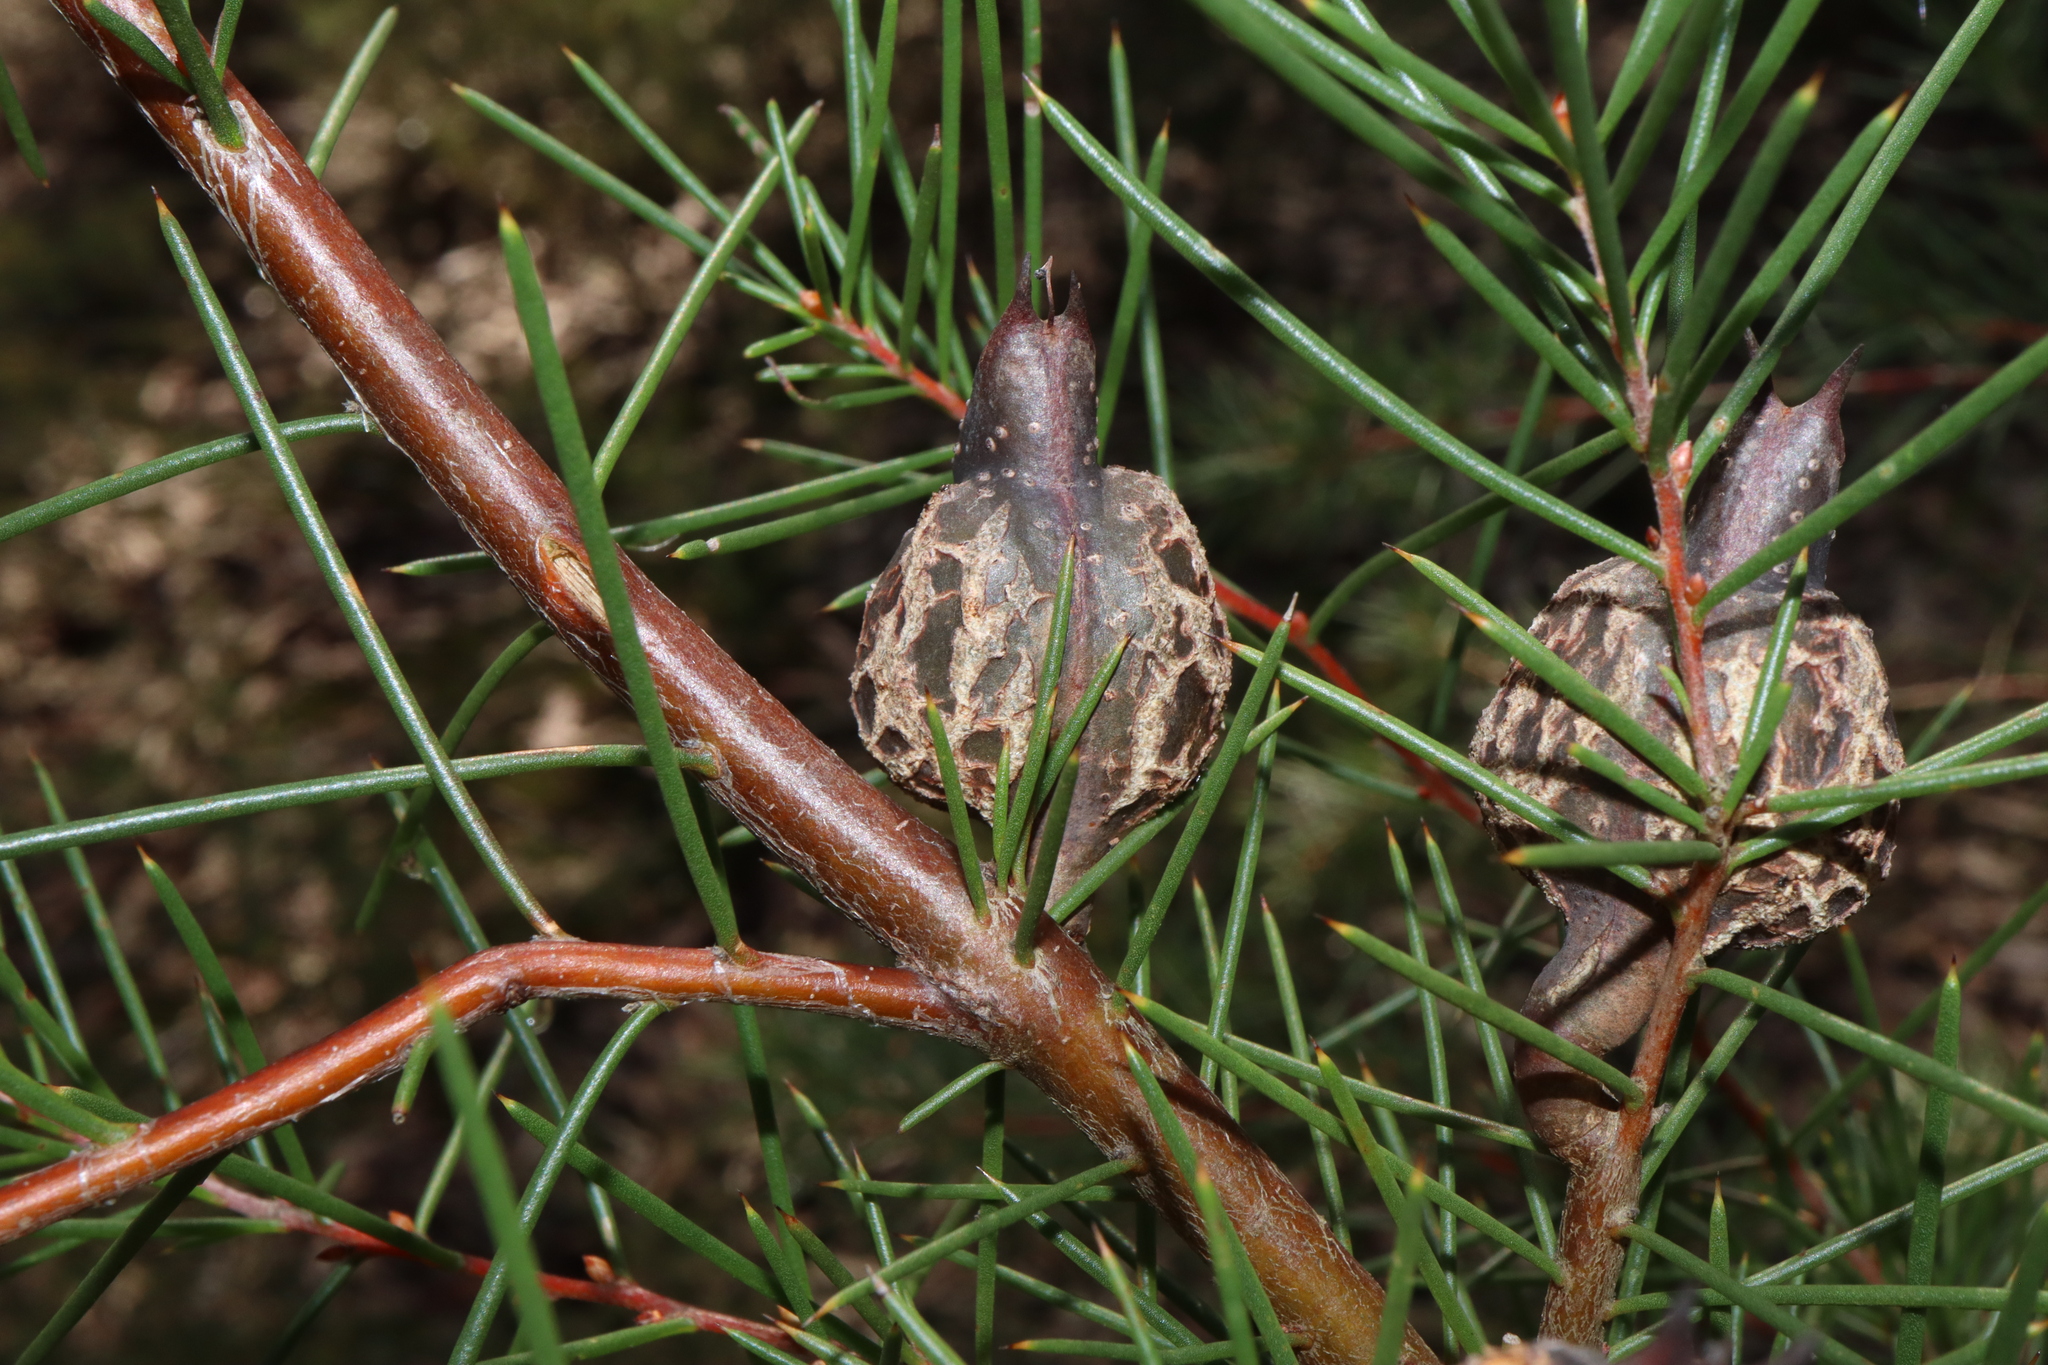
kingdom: Plantae
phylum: Tracheophyta
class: Magnoliopsida
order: Proteales
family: Proteaceae
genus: Hakea
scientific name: Hakea sericea
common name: Needle bush
